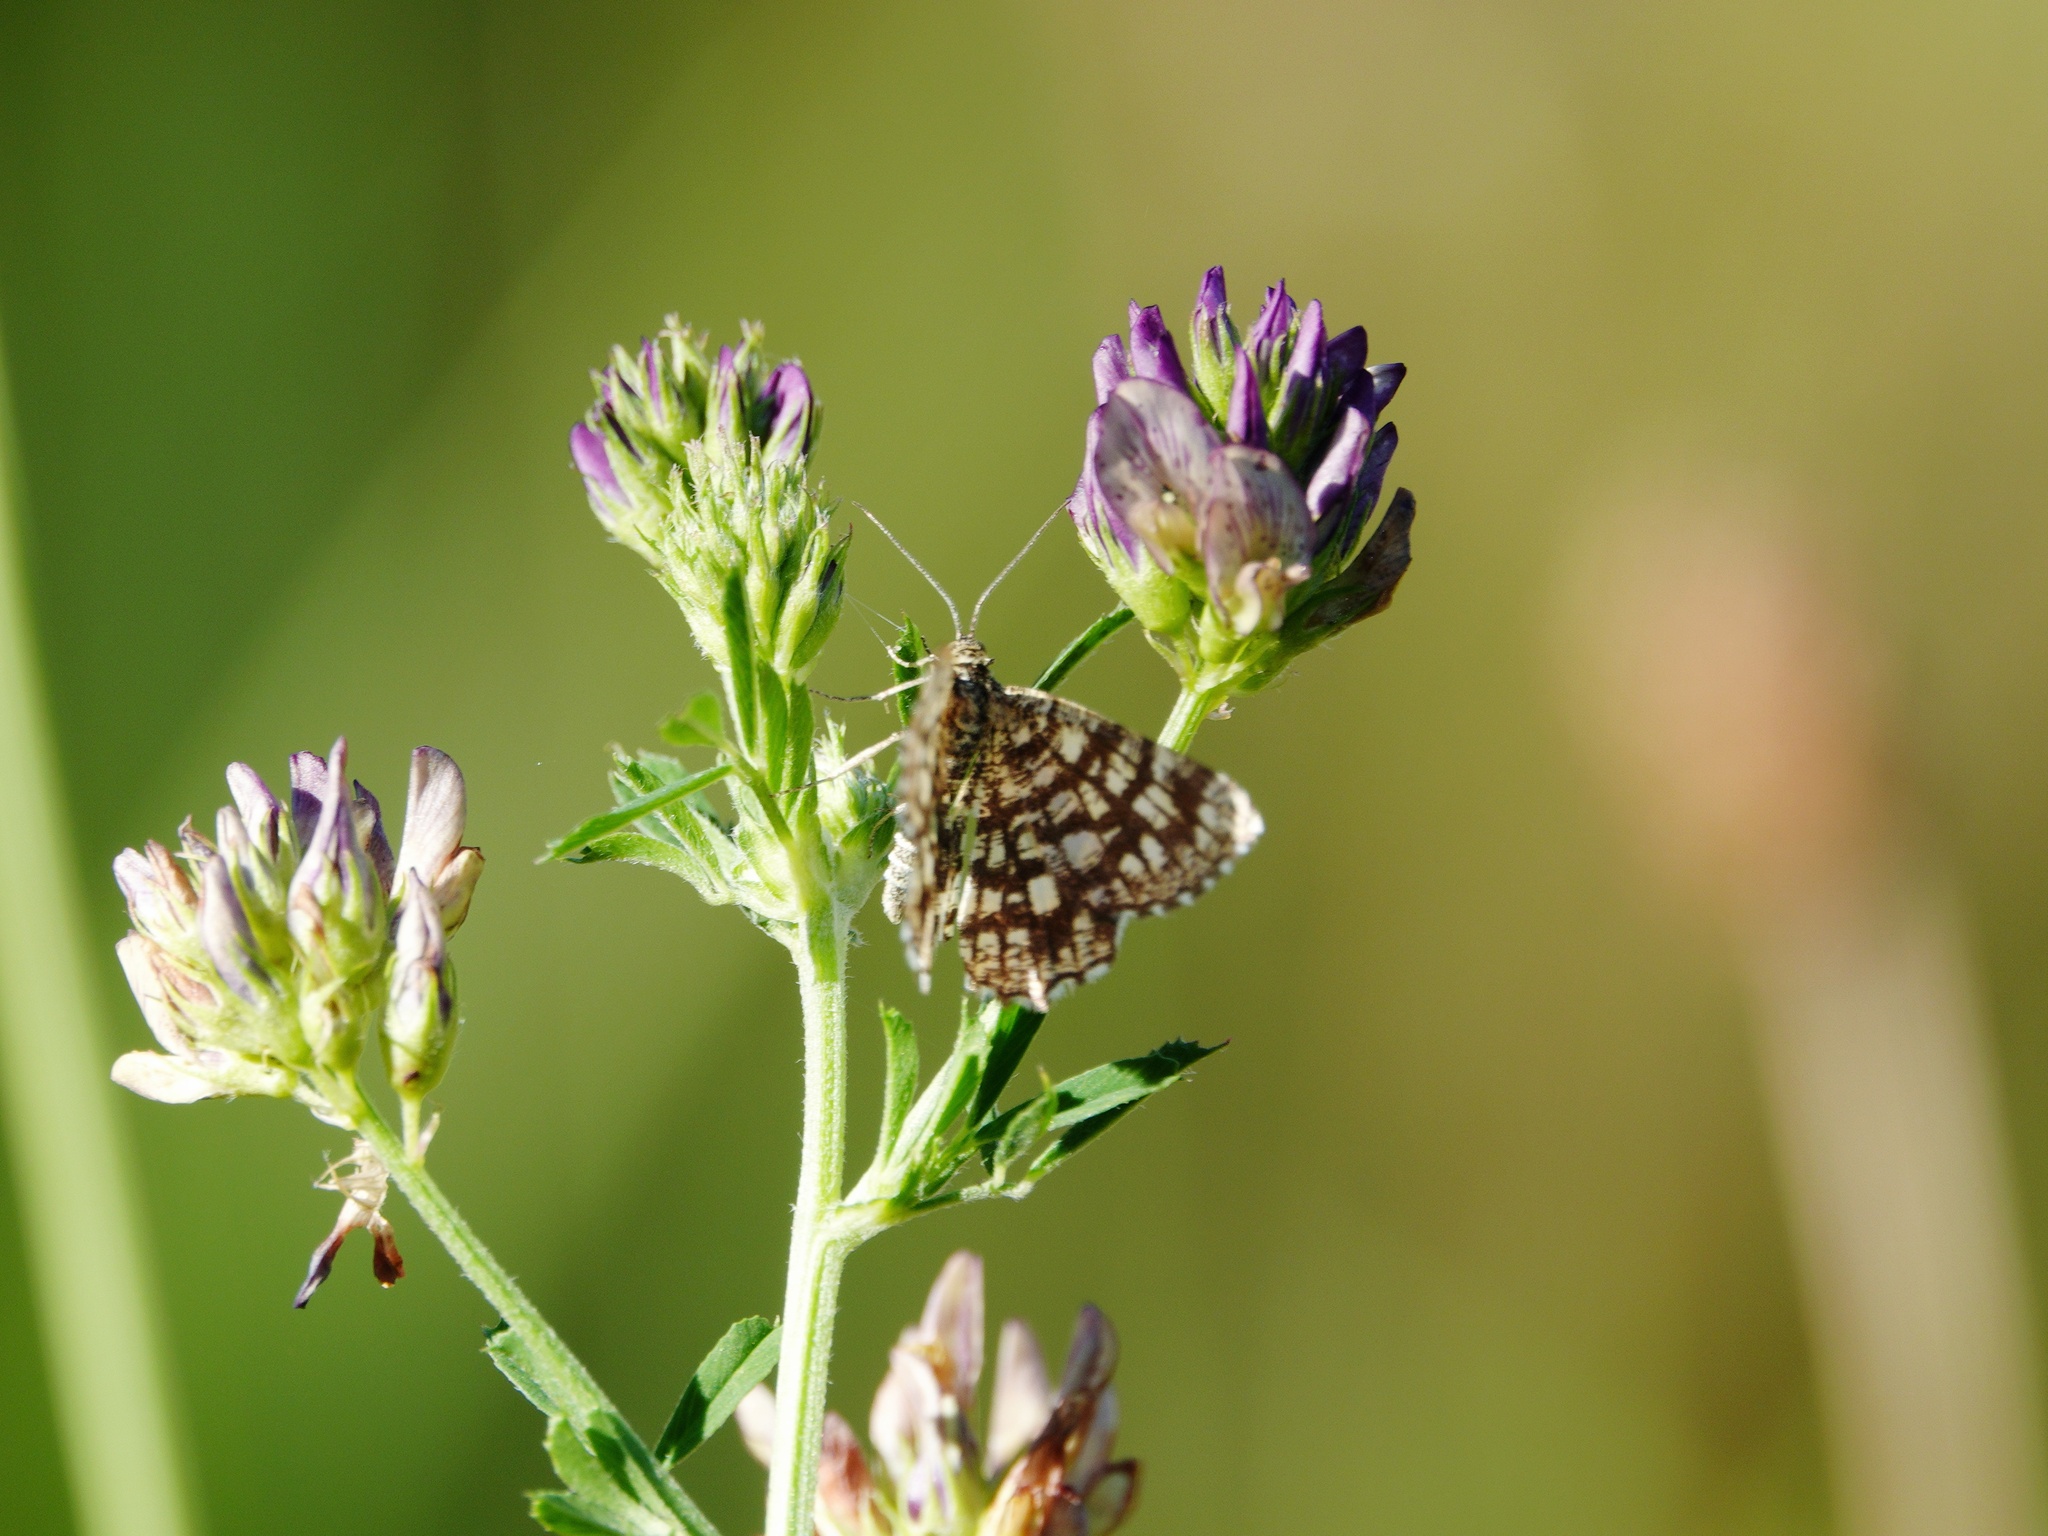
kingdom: Animalia
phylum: Arthropoda
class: Insecta
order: Lepidoptera
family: Geometridae
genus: Chiasmia
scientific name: Chiasmia clathrata
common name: Latticed heath
